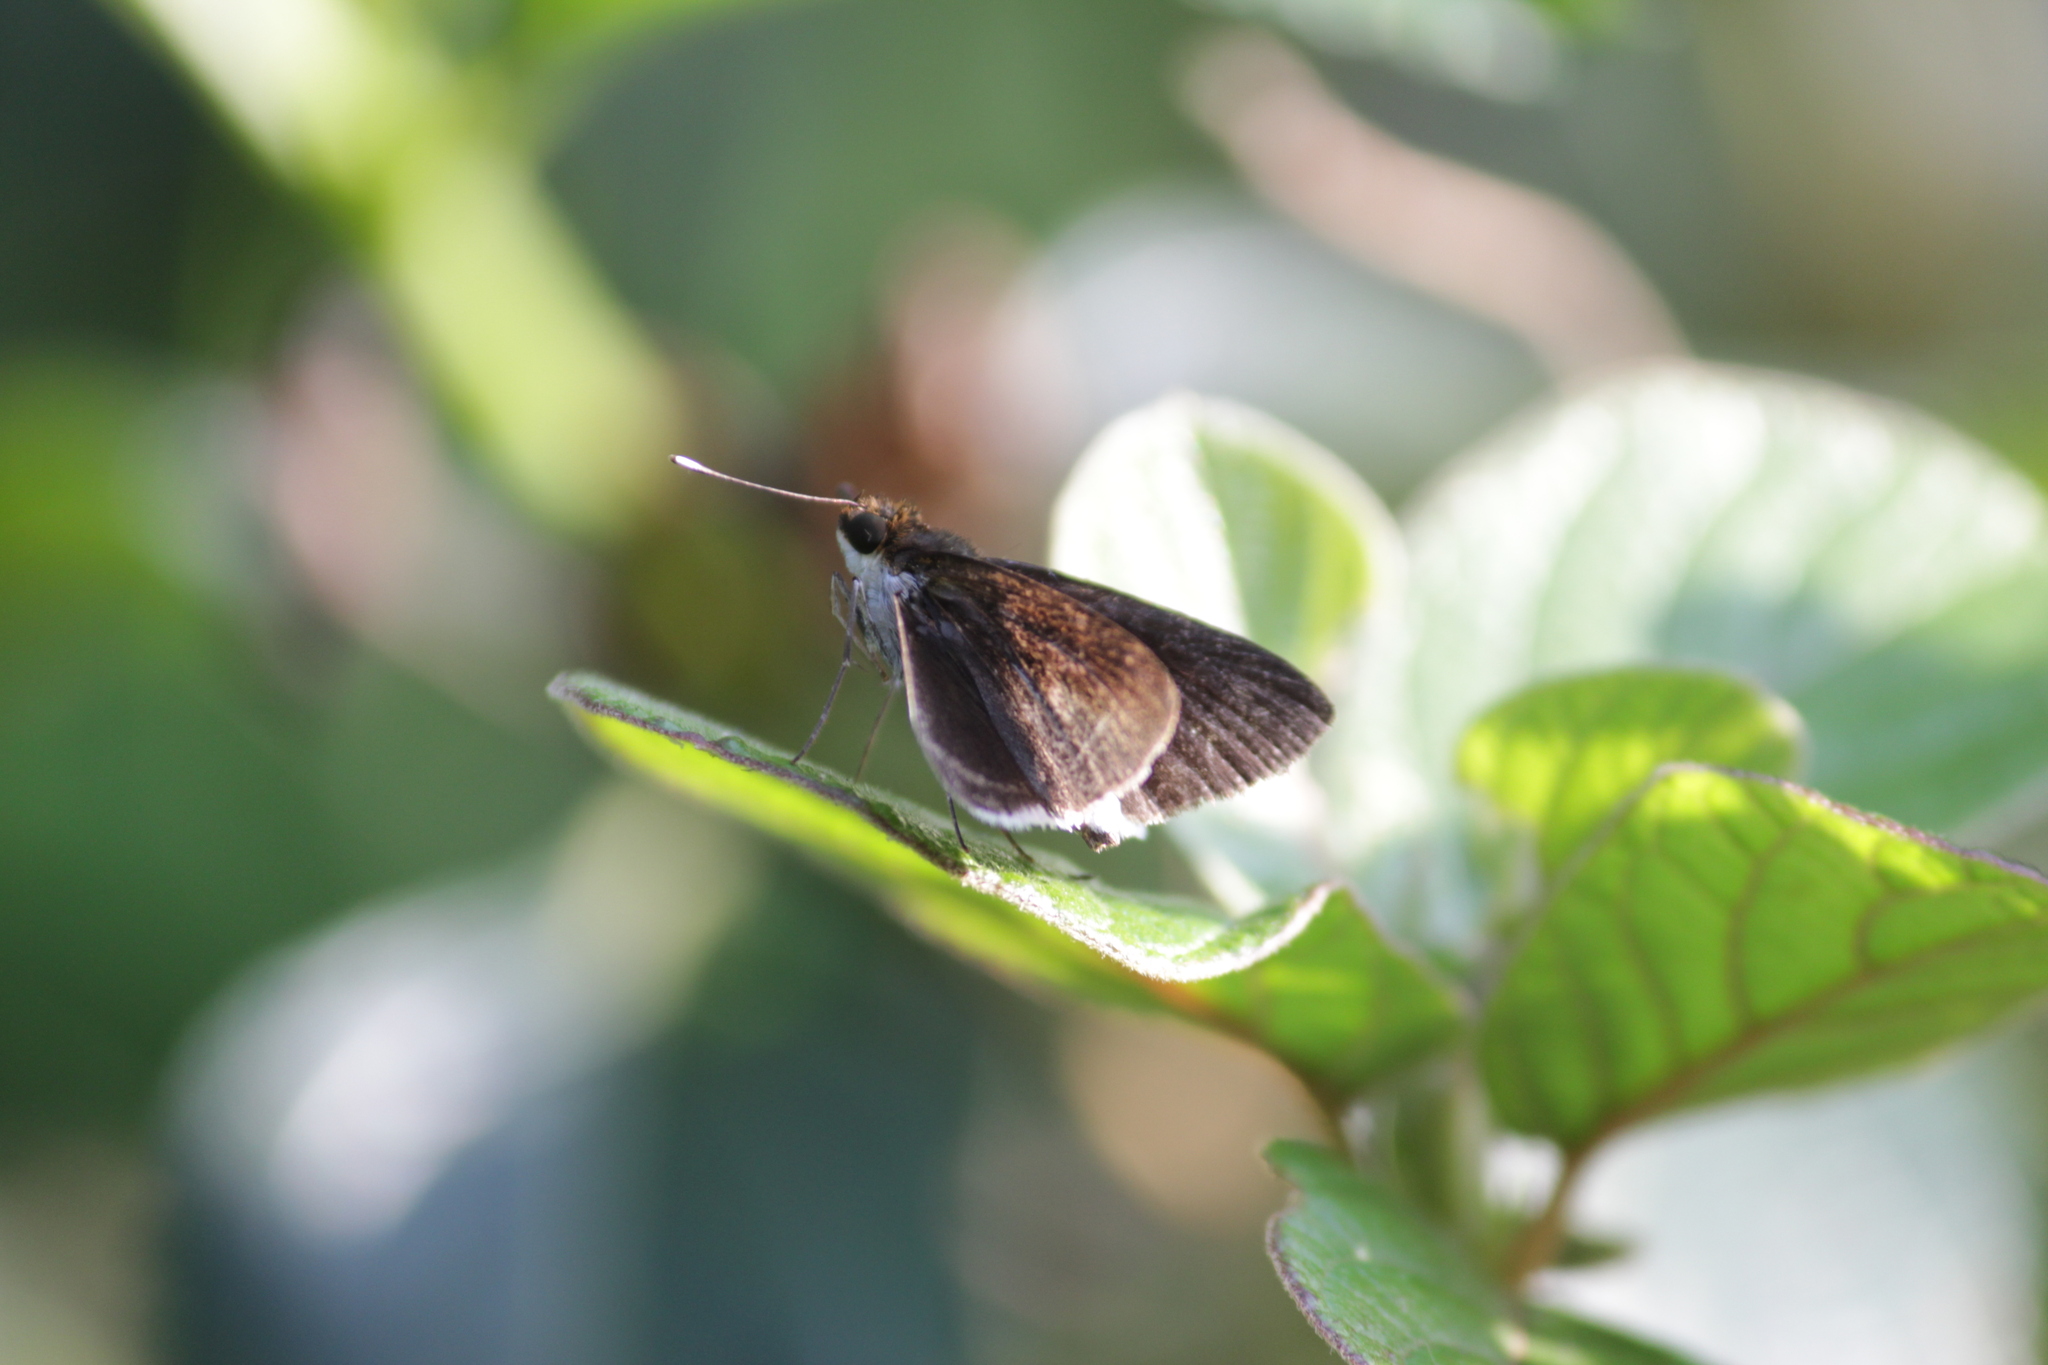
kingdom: Animalia
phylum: Arthropoda
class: Insecta
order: Lepidoptera
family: Hesperiidae
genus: Acleros
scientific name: Acleros mackenii
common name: Shade dart
